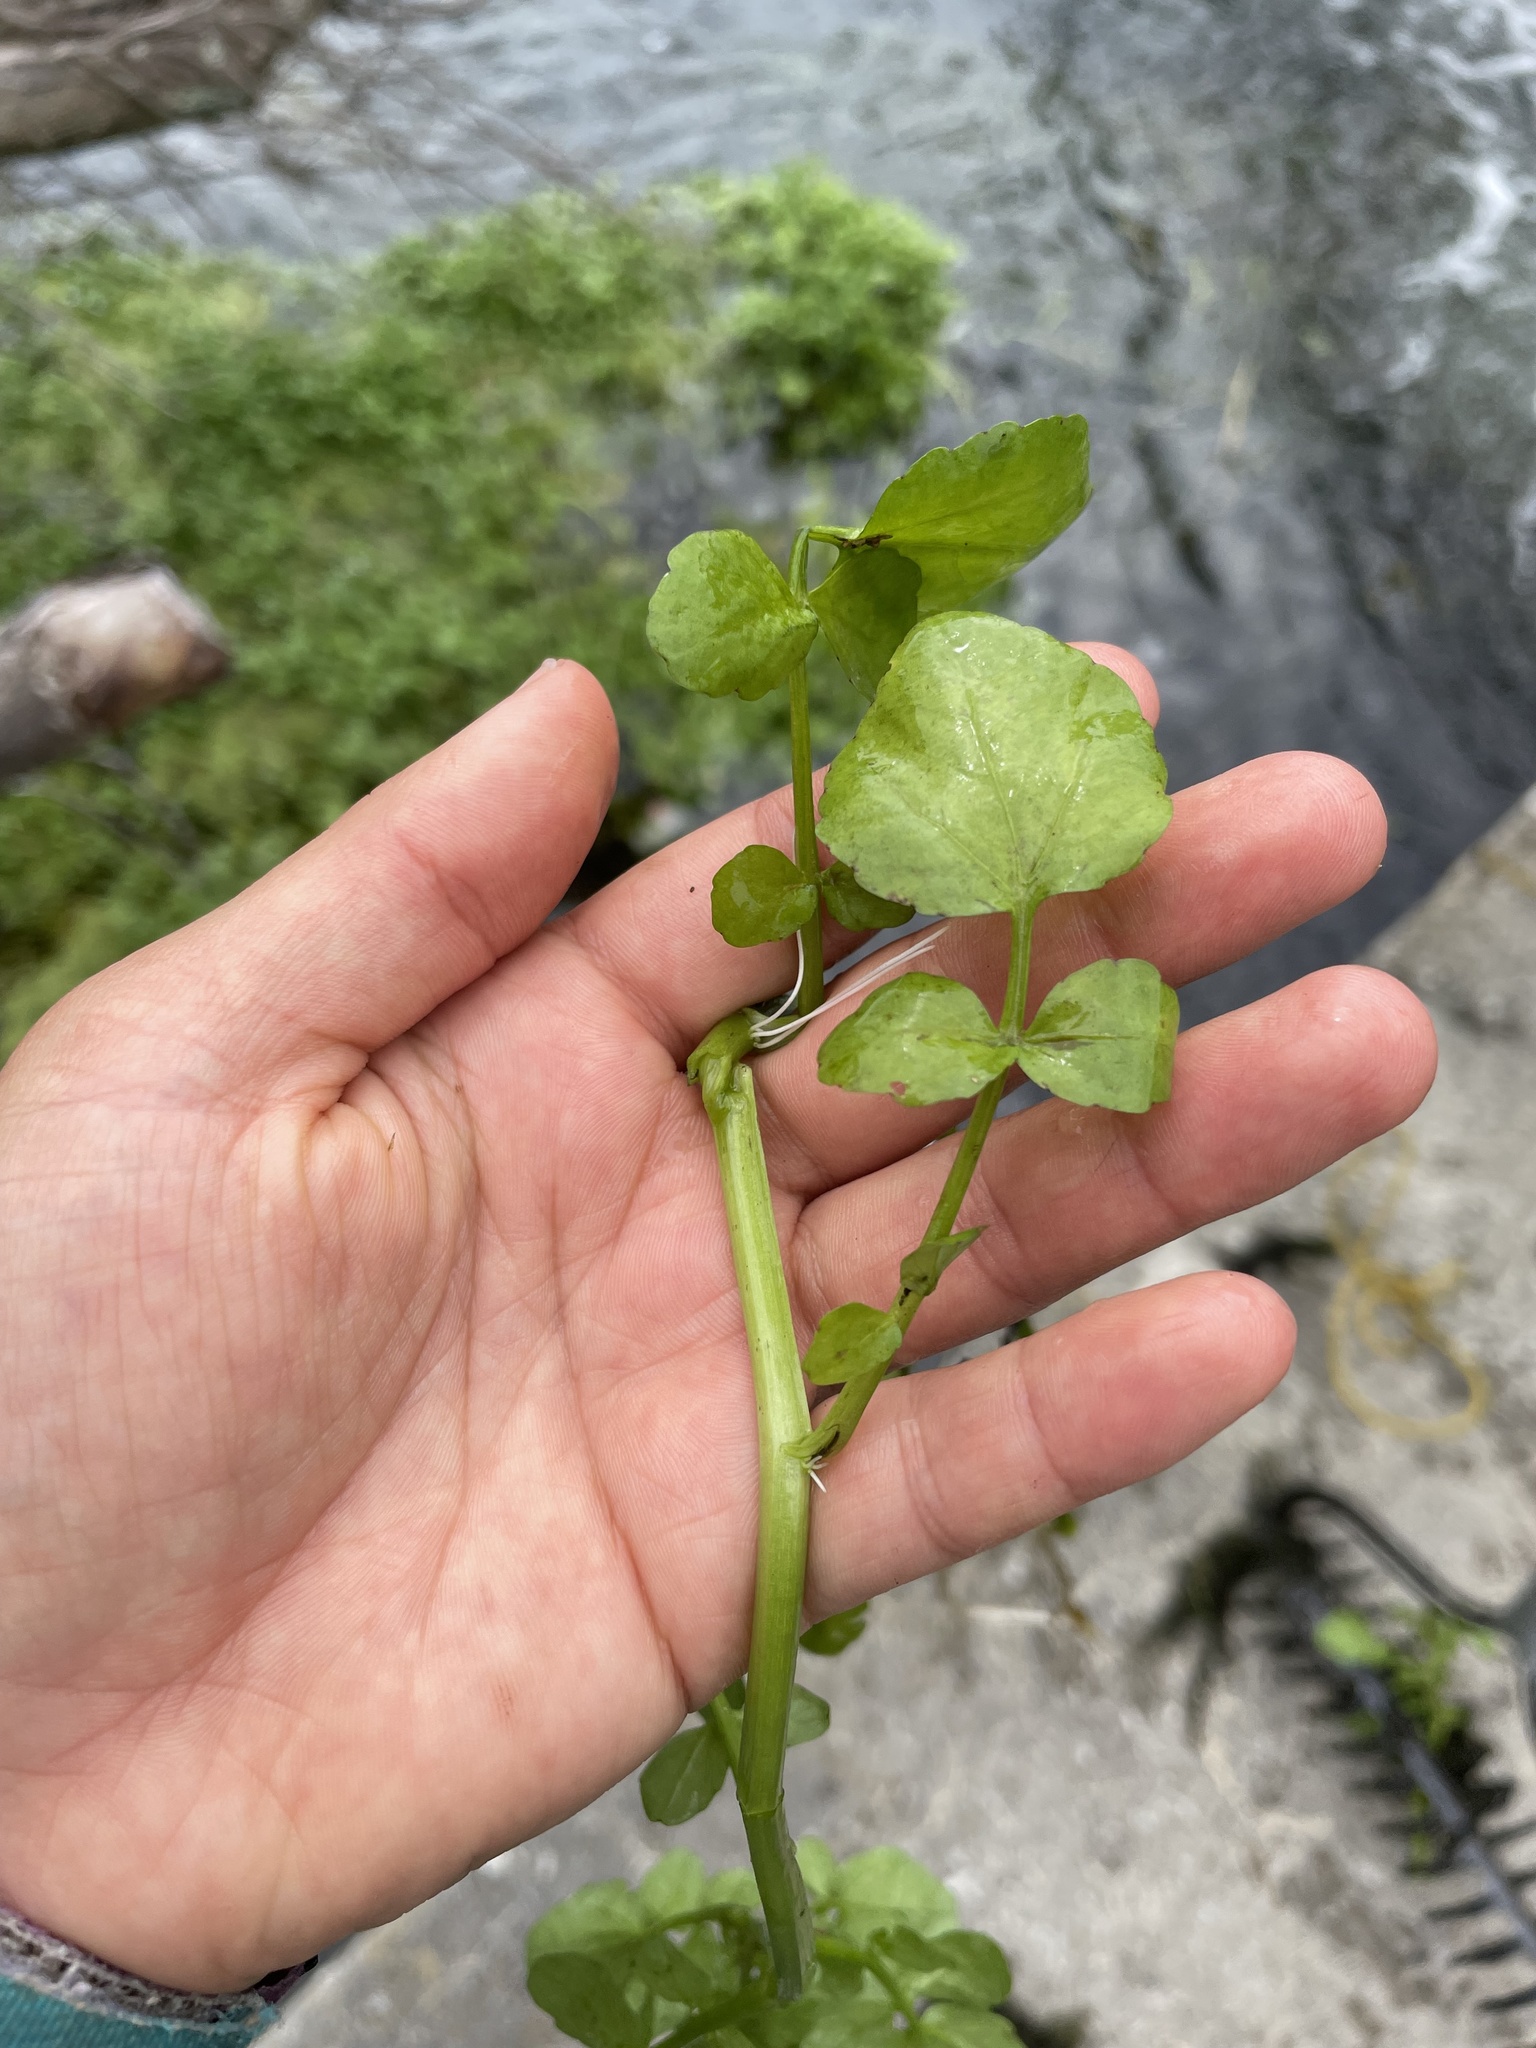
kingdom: Plantae
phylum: Tracheophyta
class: Magnoliopsida
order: Brassicales
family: Brassicaceae
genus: Nasturtium
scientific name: Nasturtium officinale
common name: Watercress
